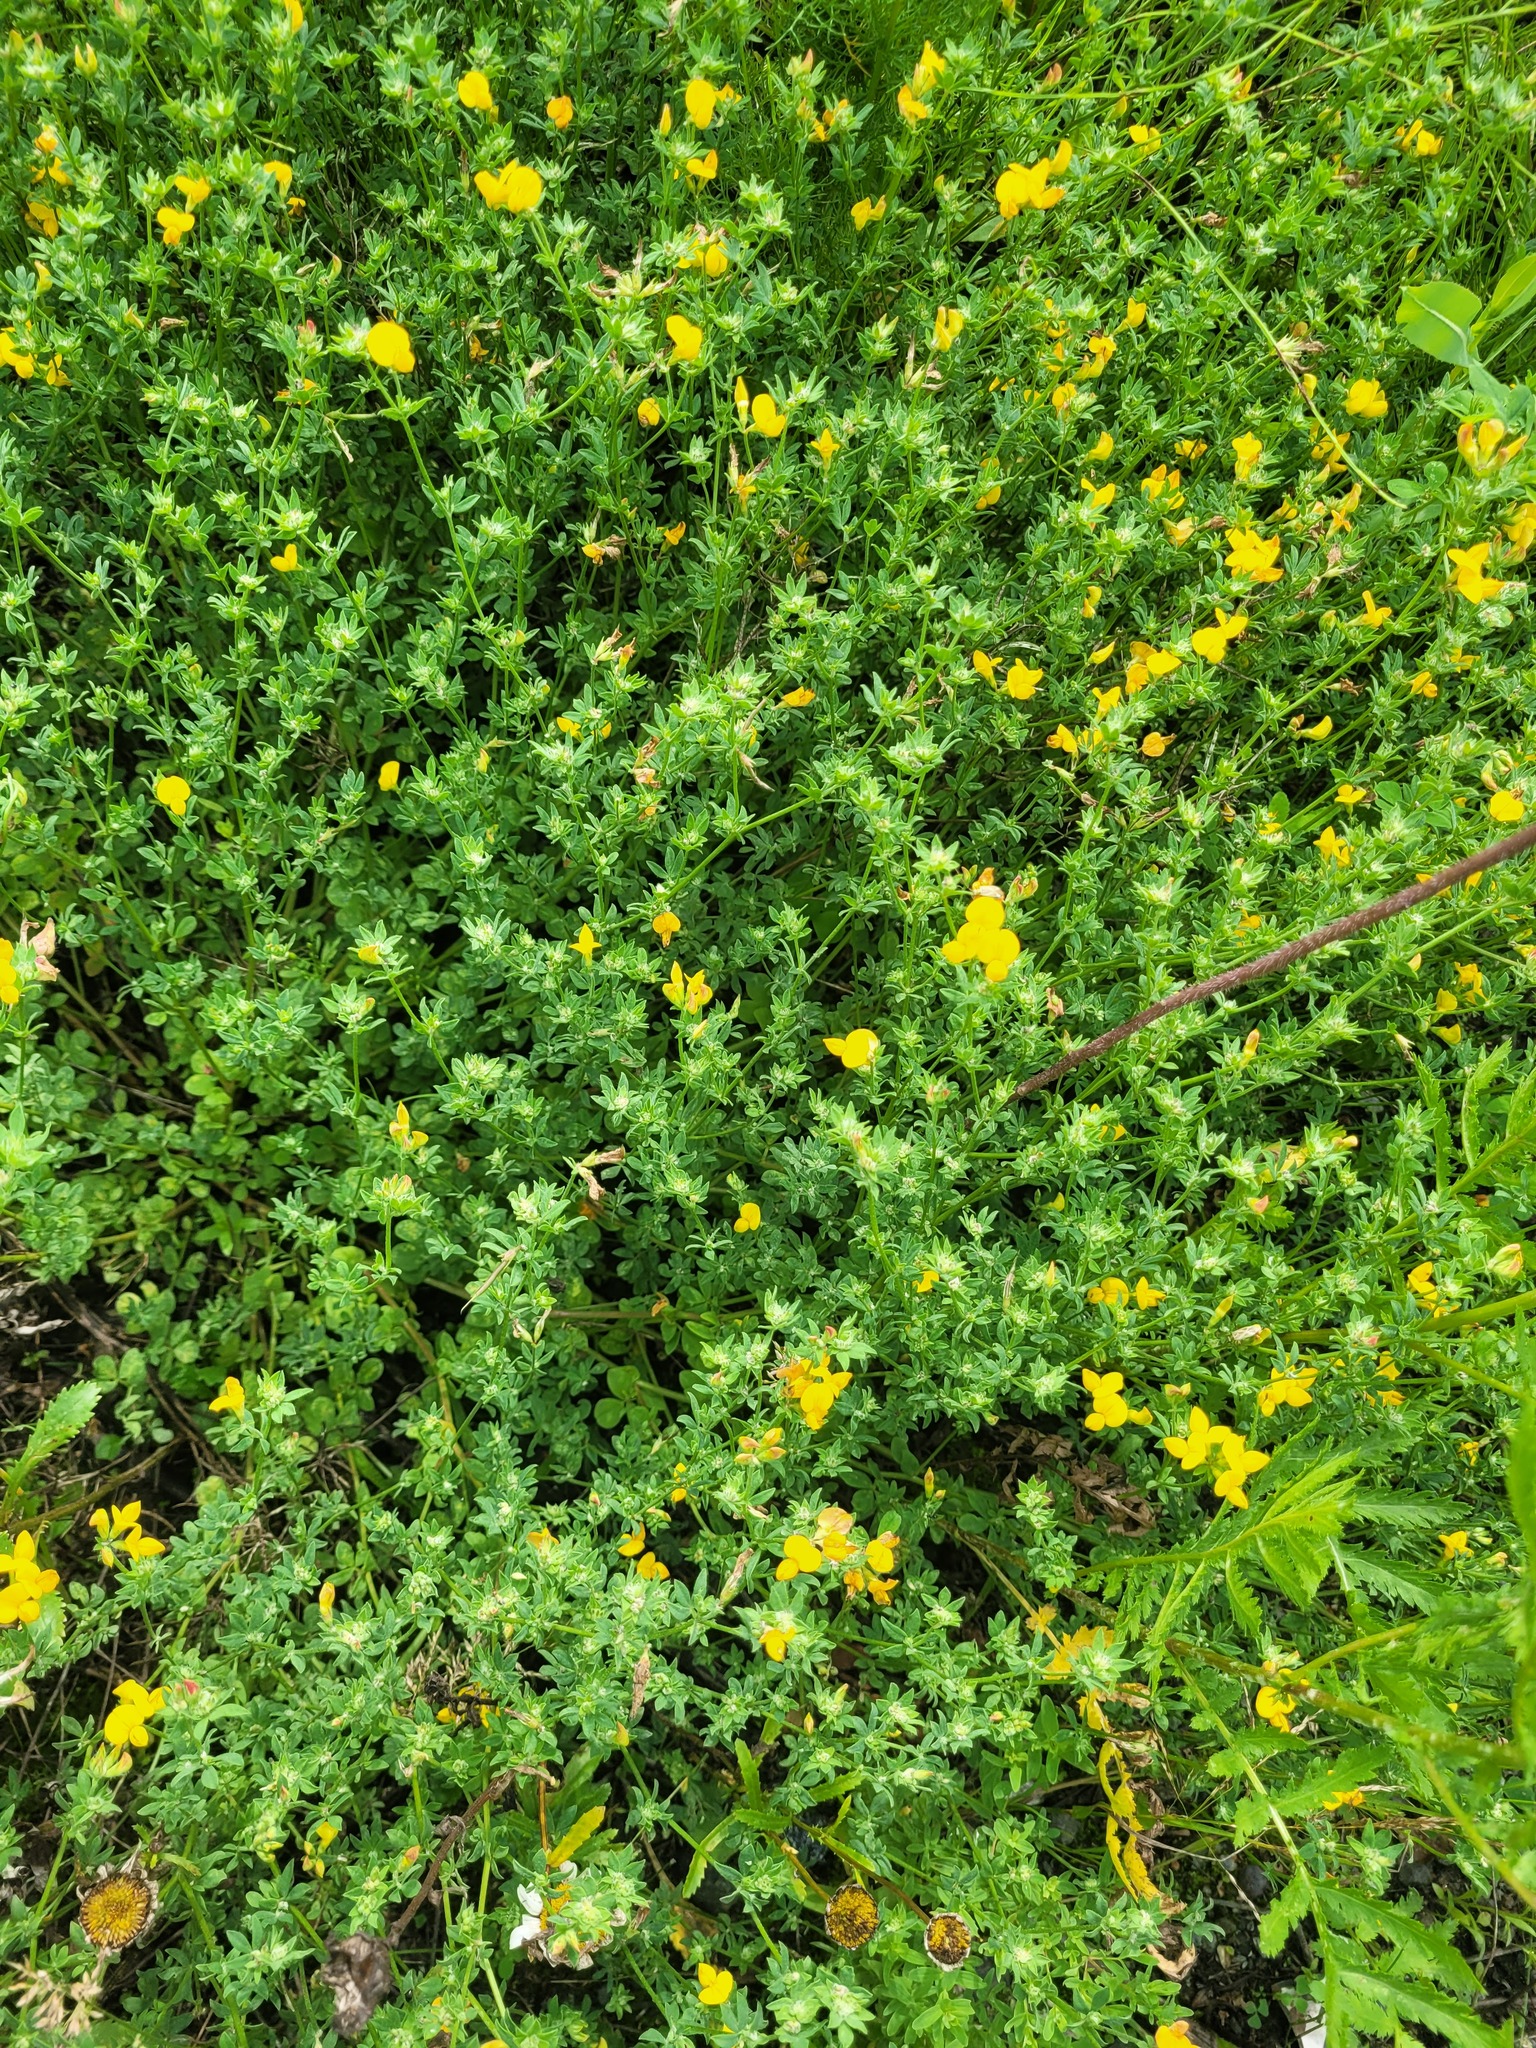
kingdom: Plantae
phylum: Tracheophyta
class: Magnoliopsida
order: Fabales
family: Fabaceae
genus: Lotus
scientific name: Lotus corniculatus
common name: Common bird's-foot-trefoil
